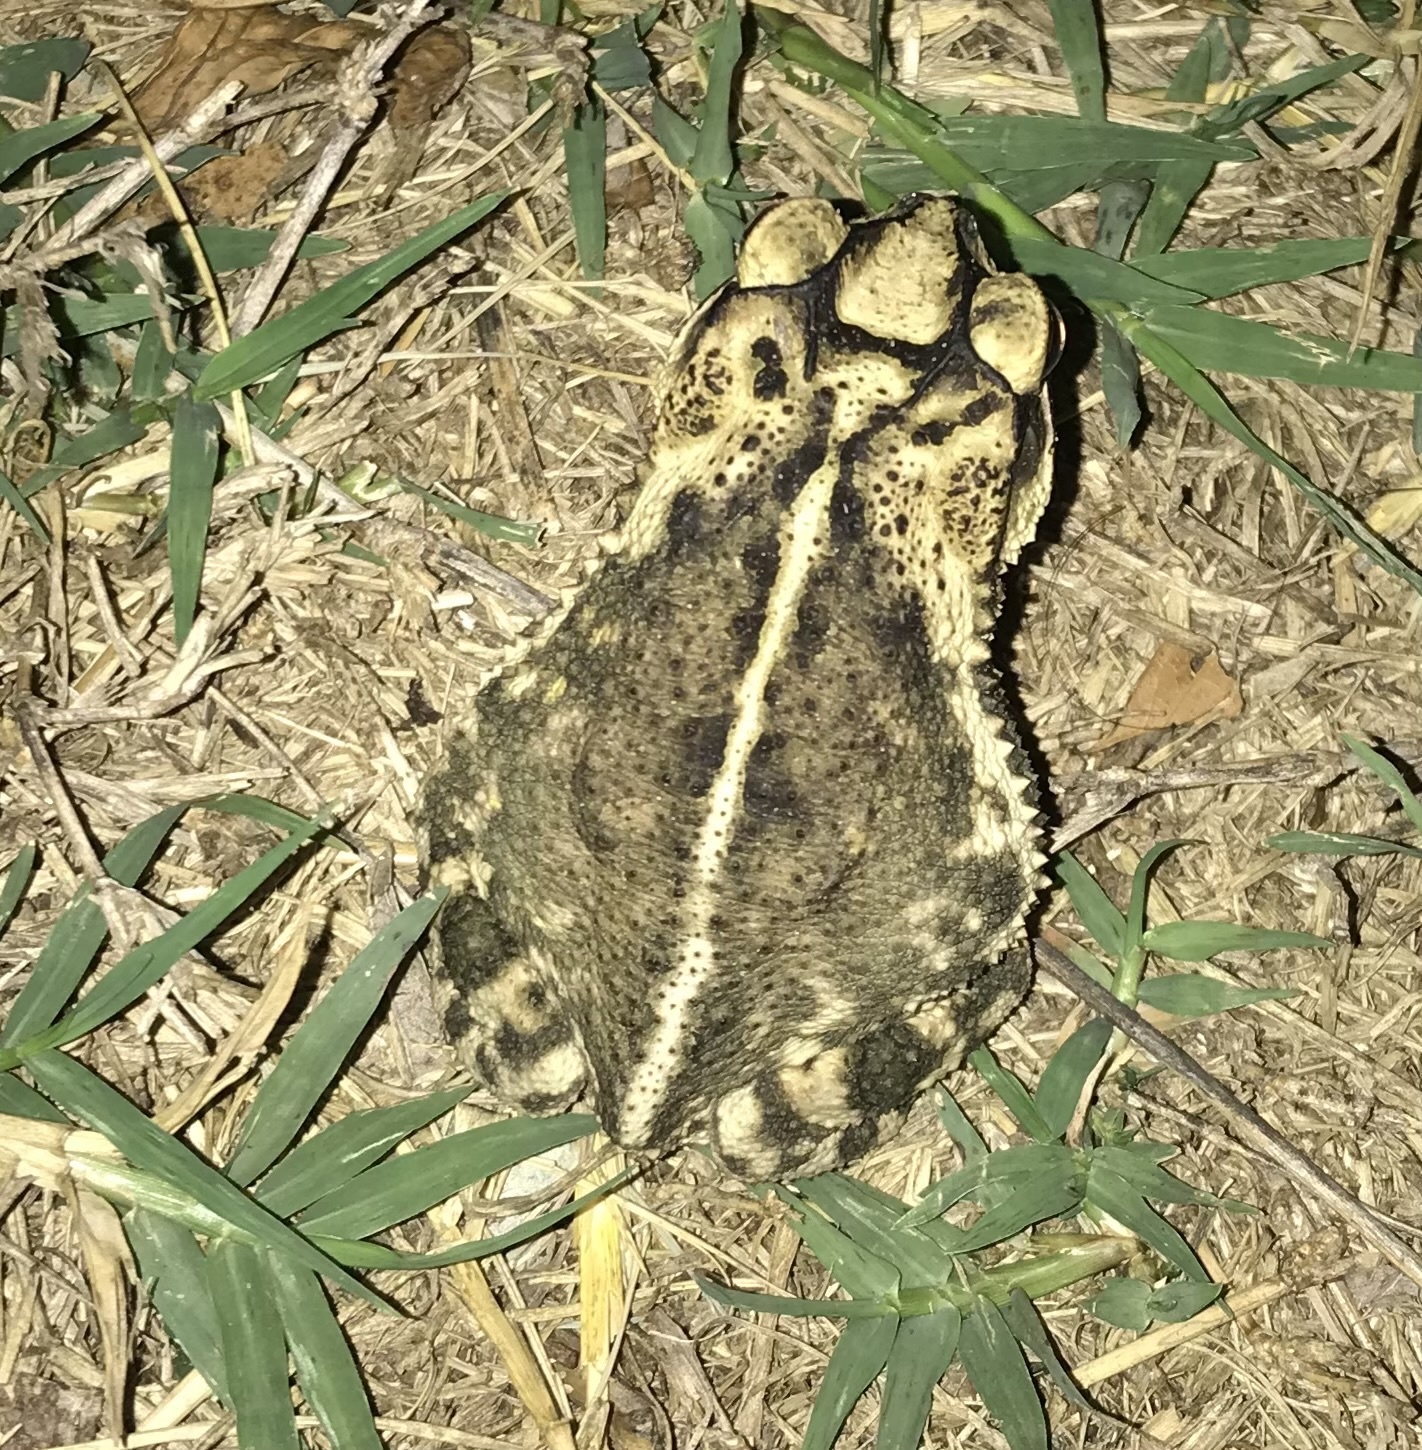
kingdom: Animalia
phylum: Chordata
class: Amphibia
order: Anura
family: Bufonidae
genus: Incilius
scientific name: Incilius nebulifer
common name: Gulf coast toad
